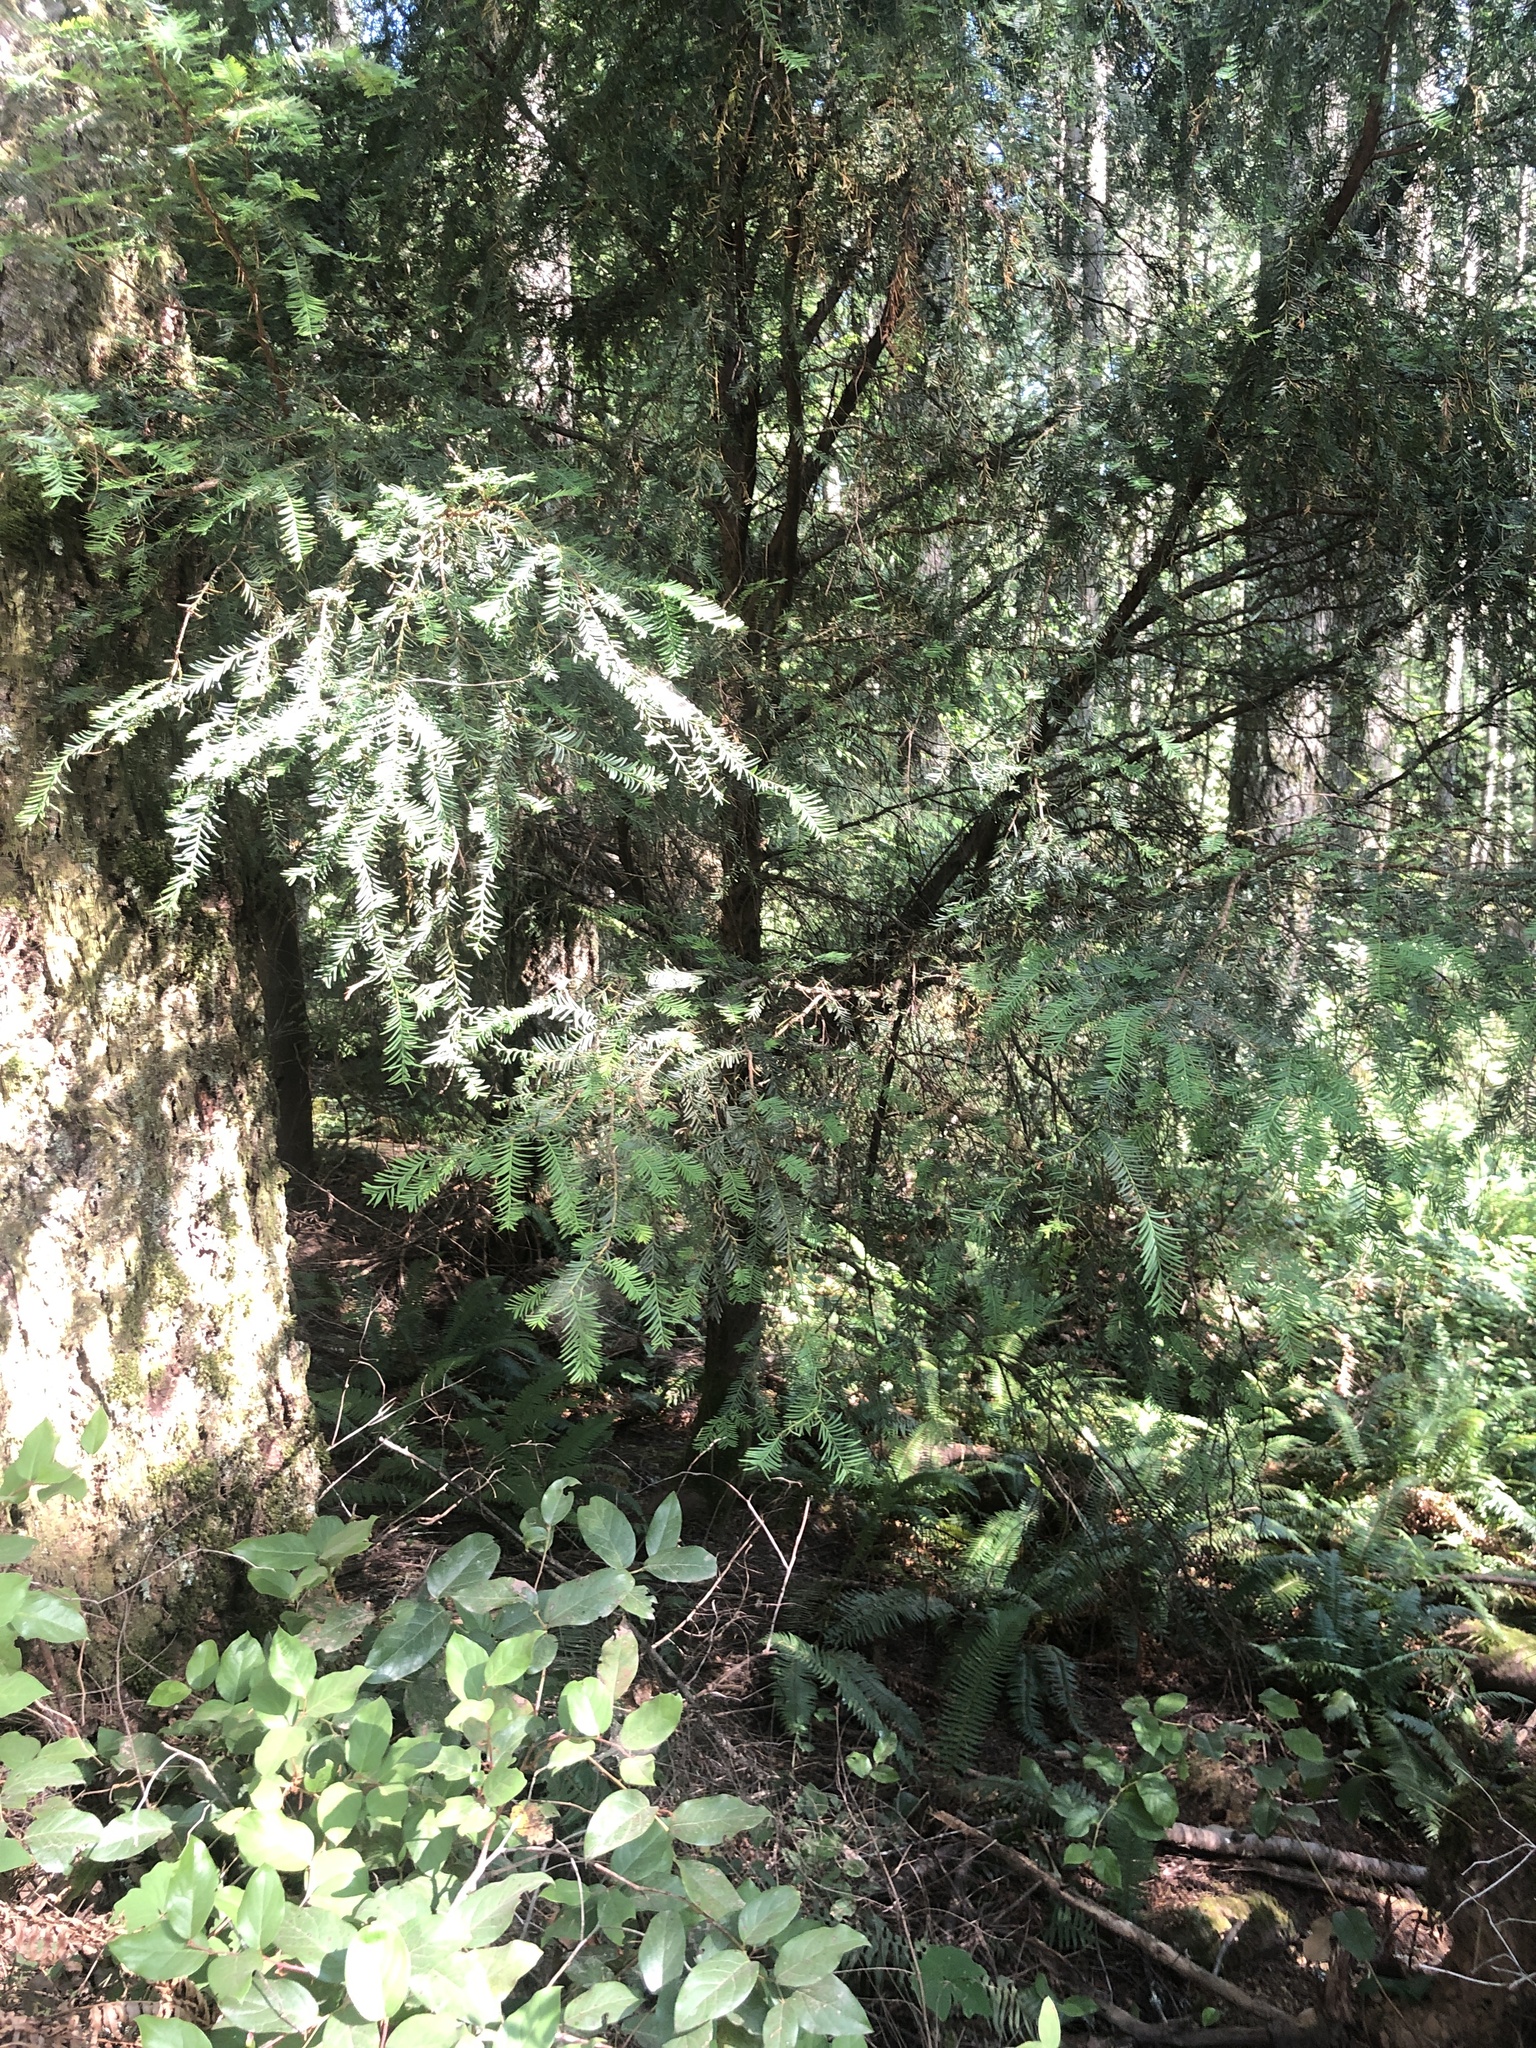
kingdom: Plantae
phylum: Tracheophyta
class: Pinopsida
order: Pinales
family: Taxaceae
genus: Taxus
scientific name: Taxus brevifolia
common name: Pacific yew
